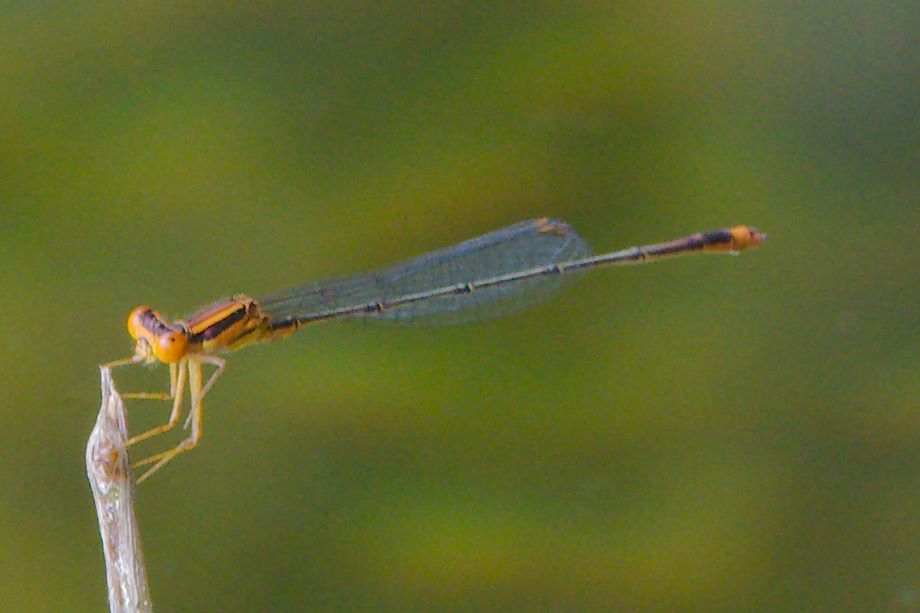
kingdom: Animalia
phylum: Arthropoda
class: Insecta
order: Odonata
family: Coenagrionidae
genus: Enallagma
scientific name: Enallagma pollutum
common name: Florida bluet
